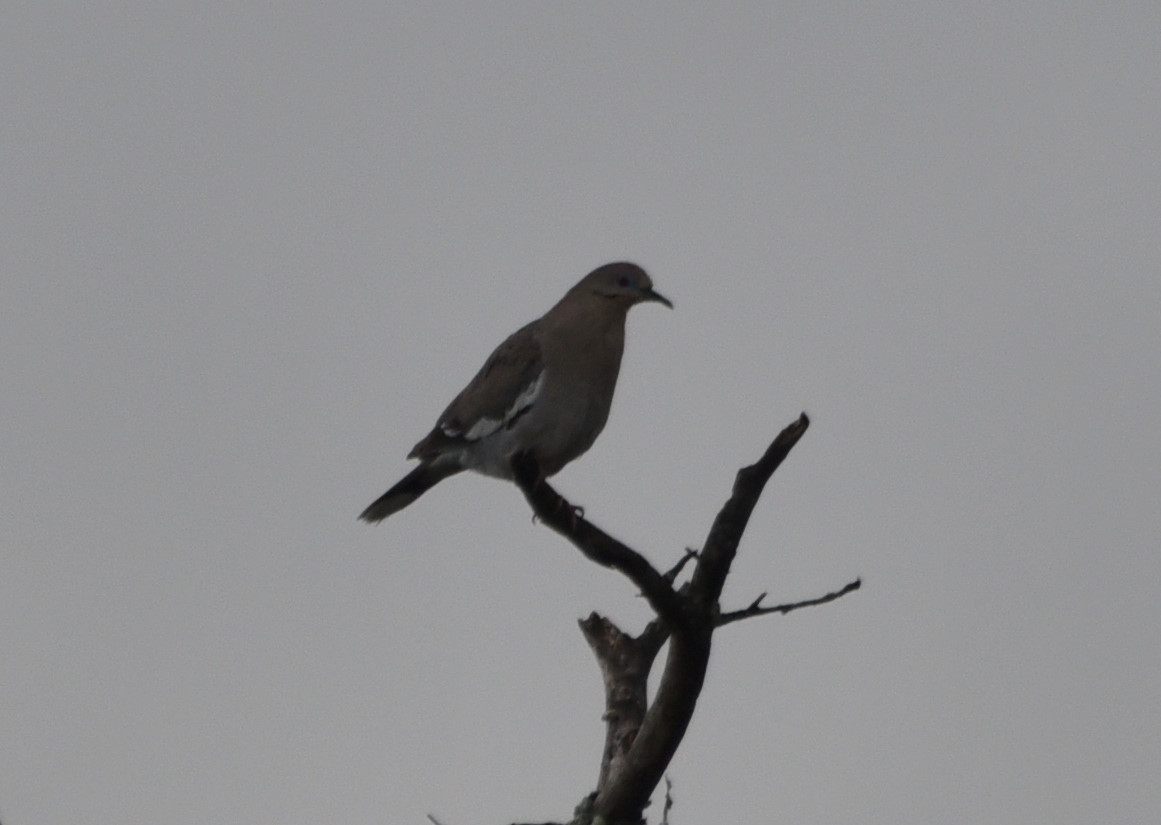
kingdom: Animalia
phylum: Chordata
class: Aves
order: Columbiformes
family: Columbidae
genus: Zenaida
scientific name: Zenaida asiatica
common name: White-winged dove
